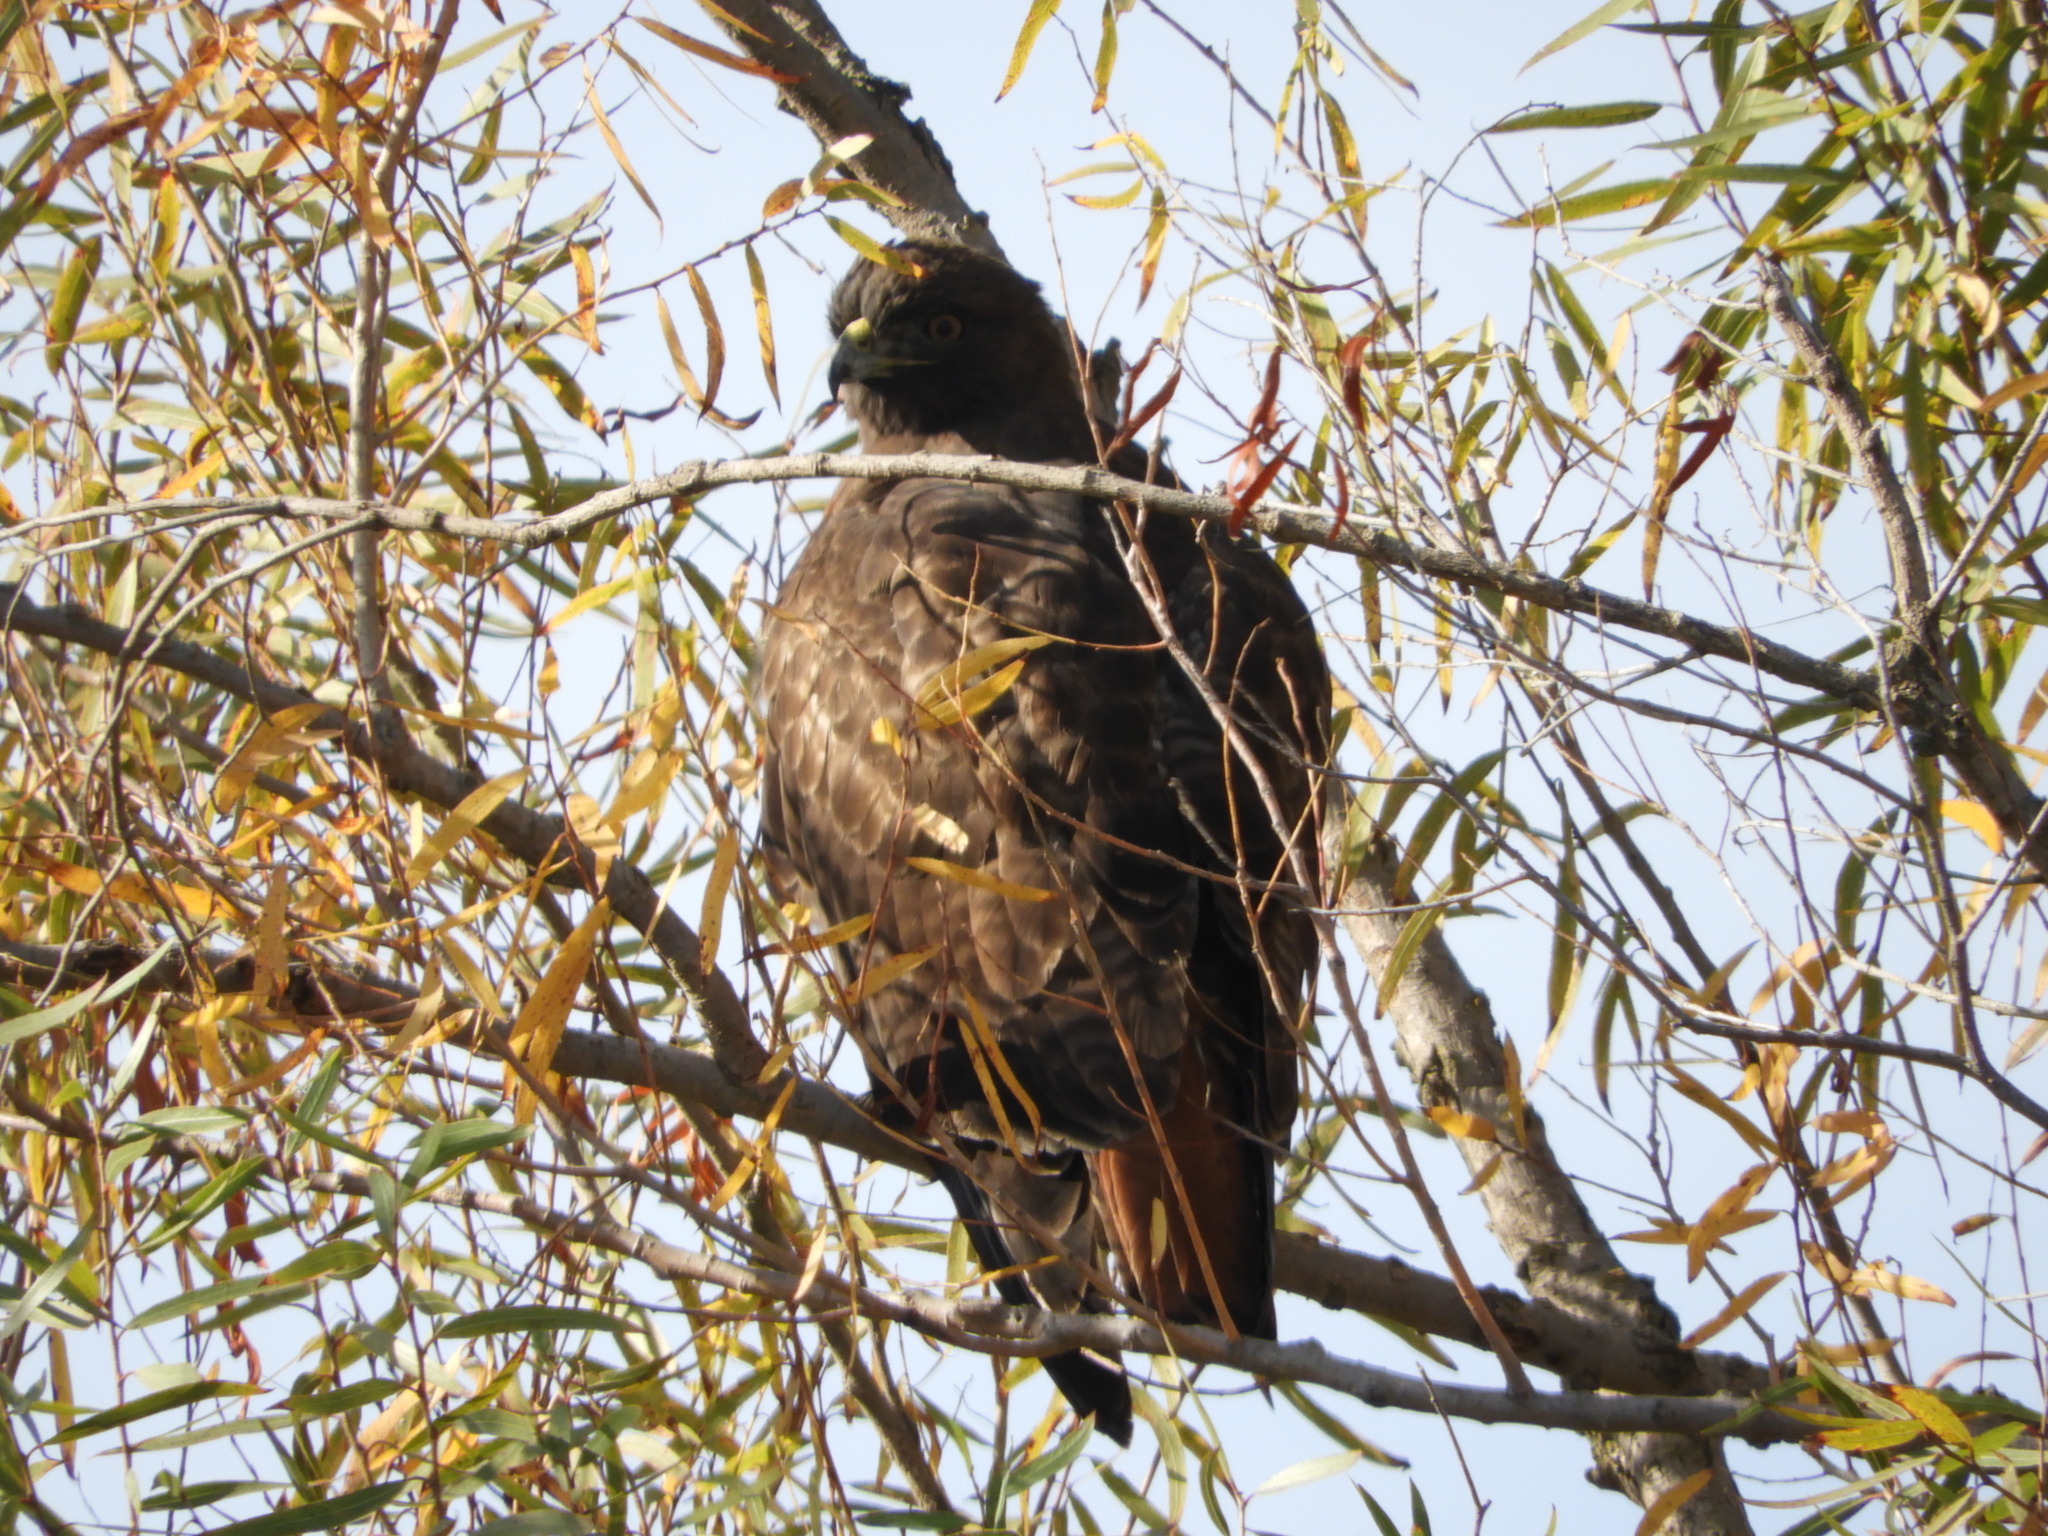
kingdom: Animalia
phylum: Chordata
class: Aves
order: Accipitriformes
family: Accipitridae
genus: Buteo
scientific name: Buteo jamaicensis
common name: Red-tailed hawk
